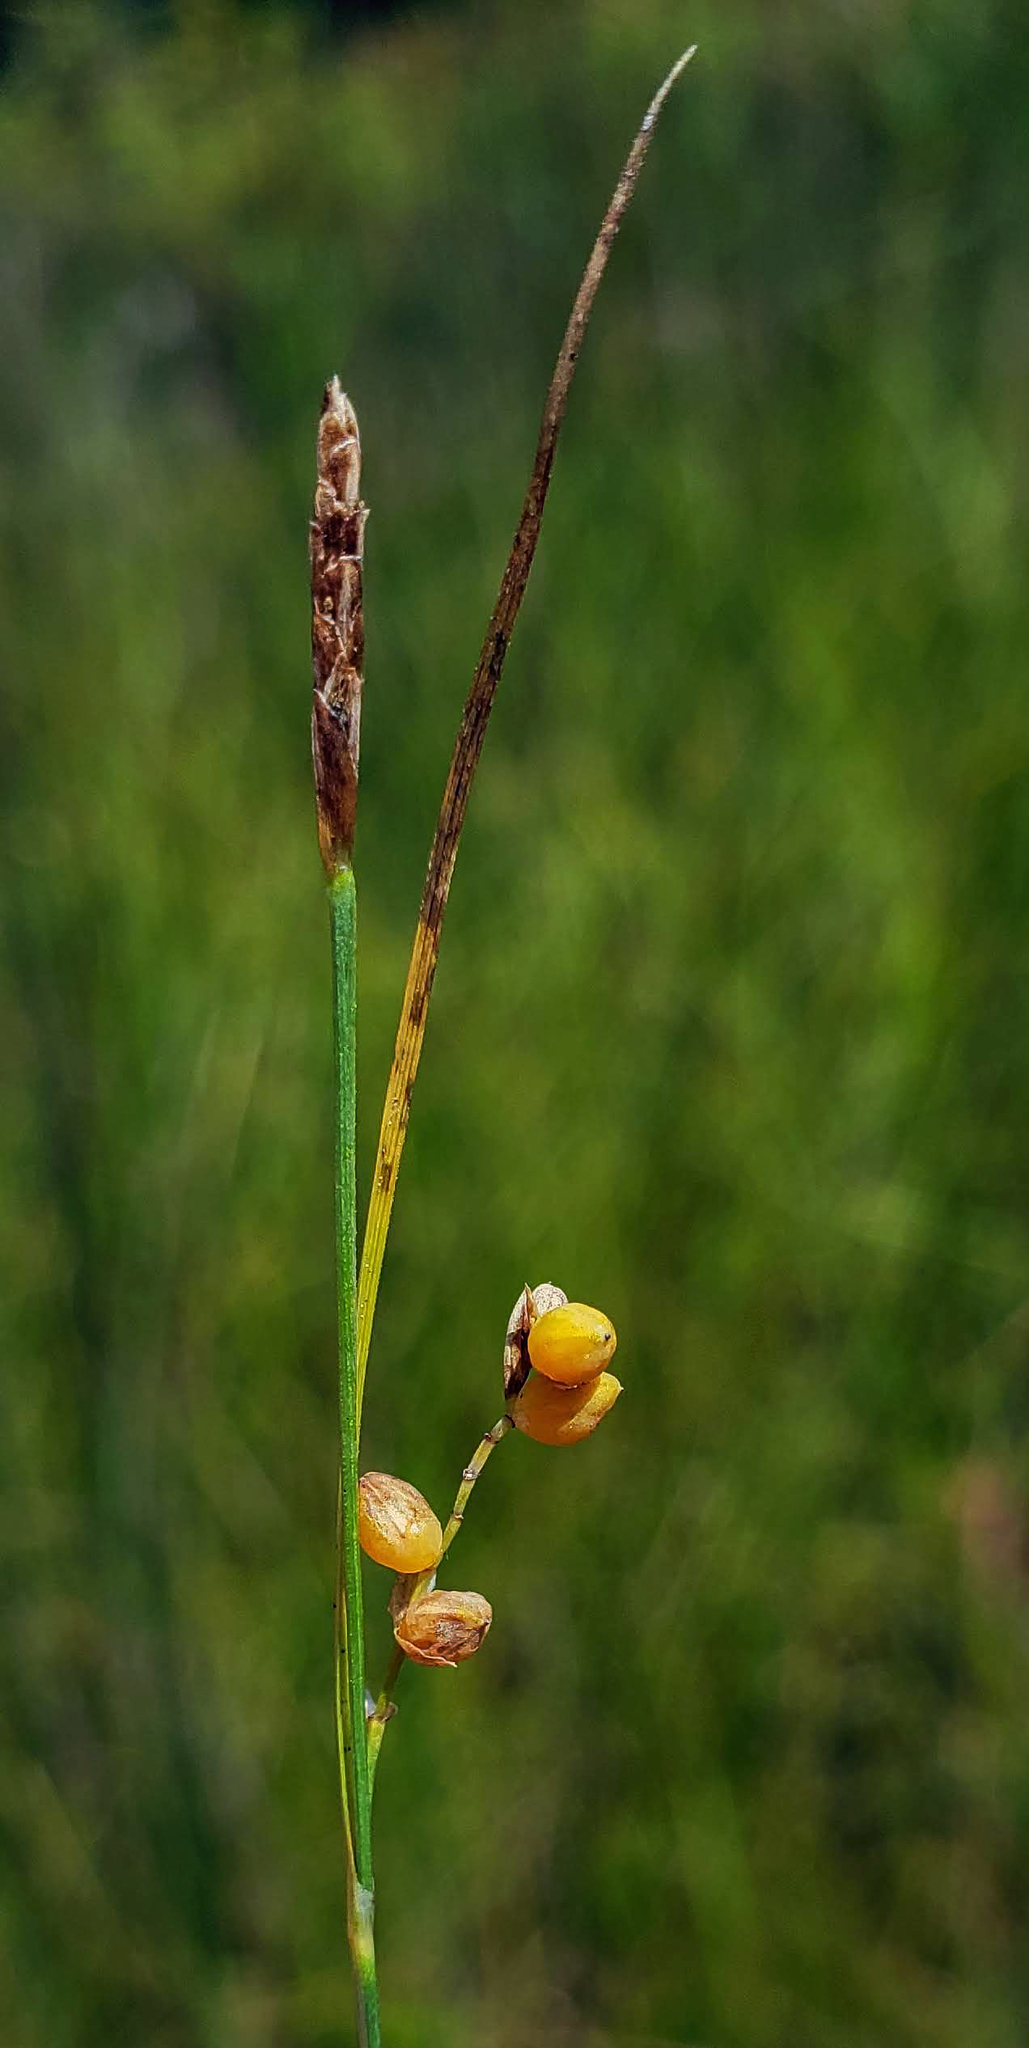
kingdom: Plantae
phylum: Tracheophyta
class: Liliopsida
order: Poales
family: Cyperaceae
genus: Carex
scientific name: Carex aurea
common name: Golden sedge
